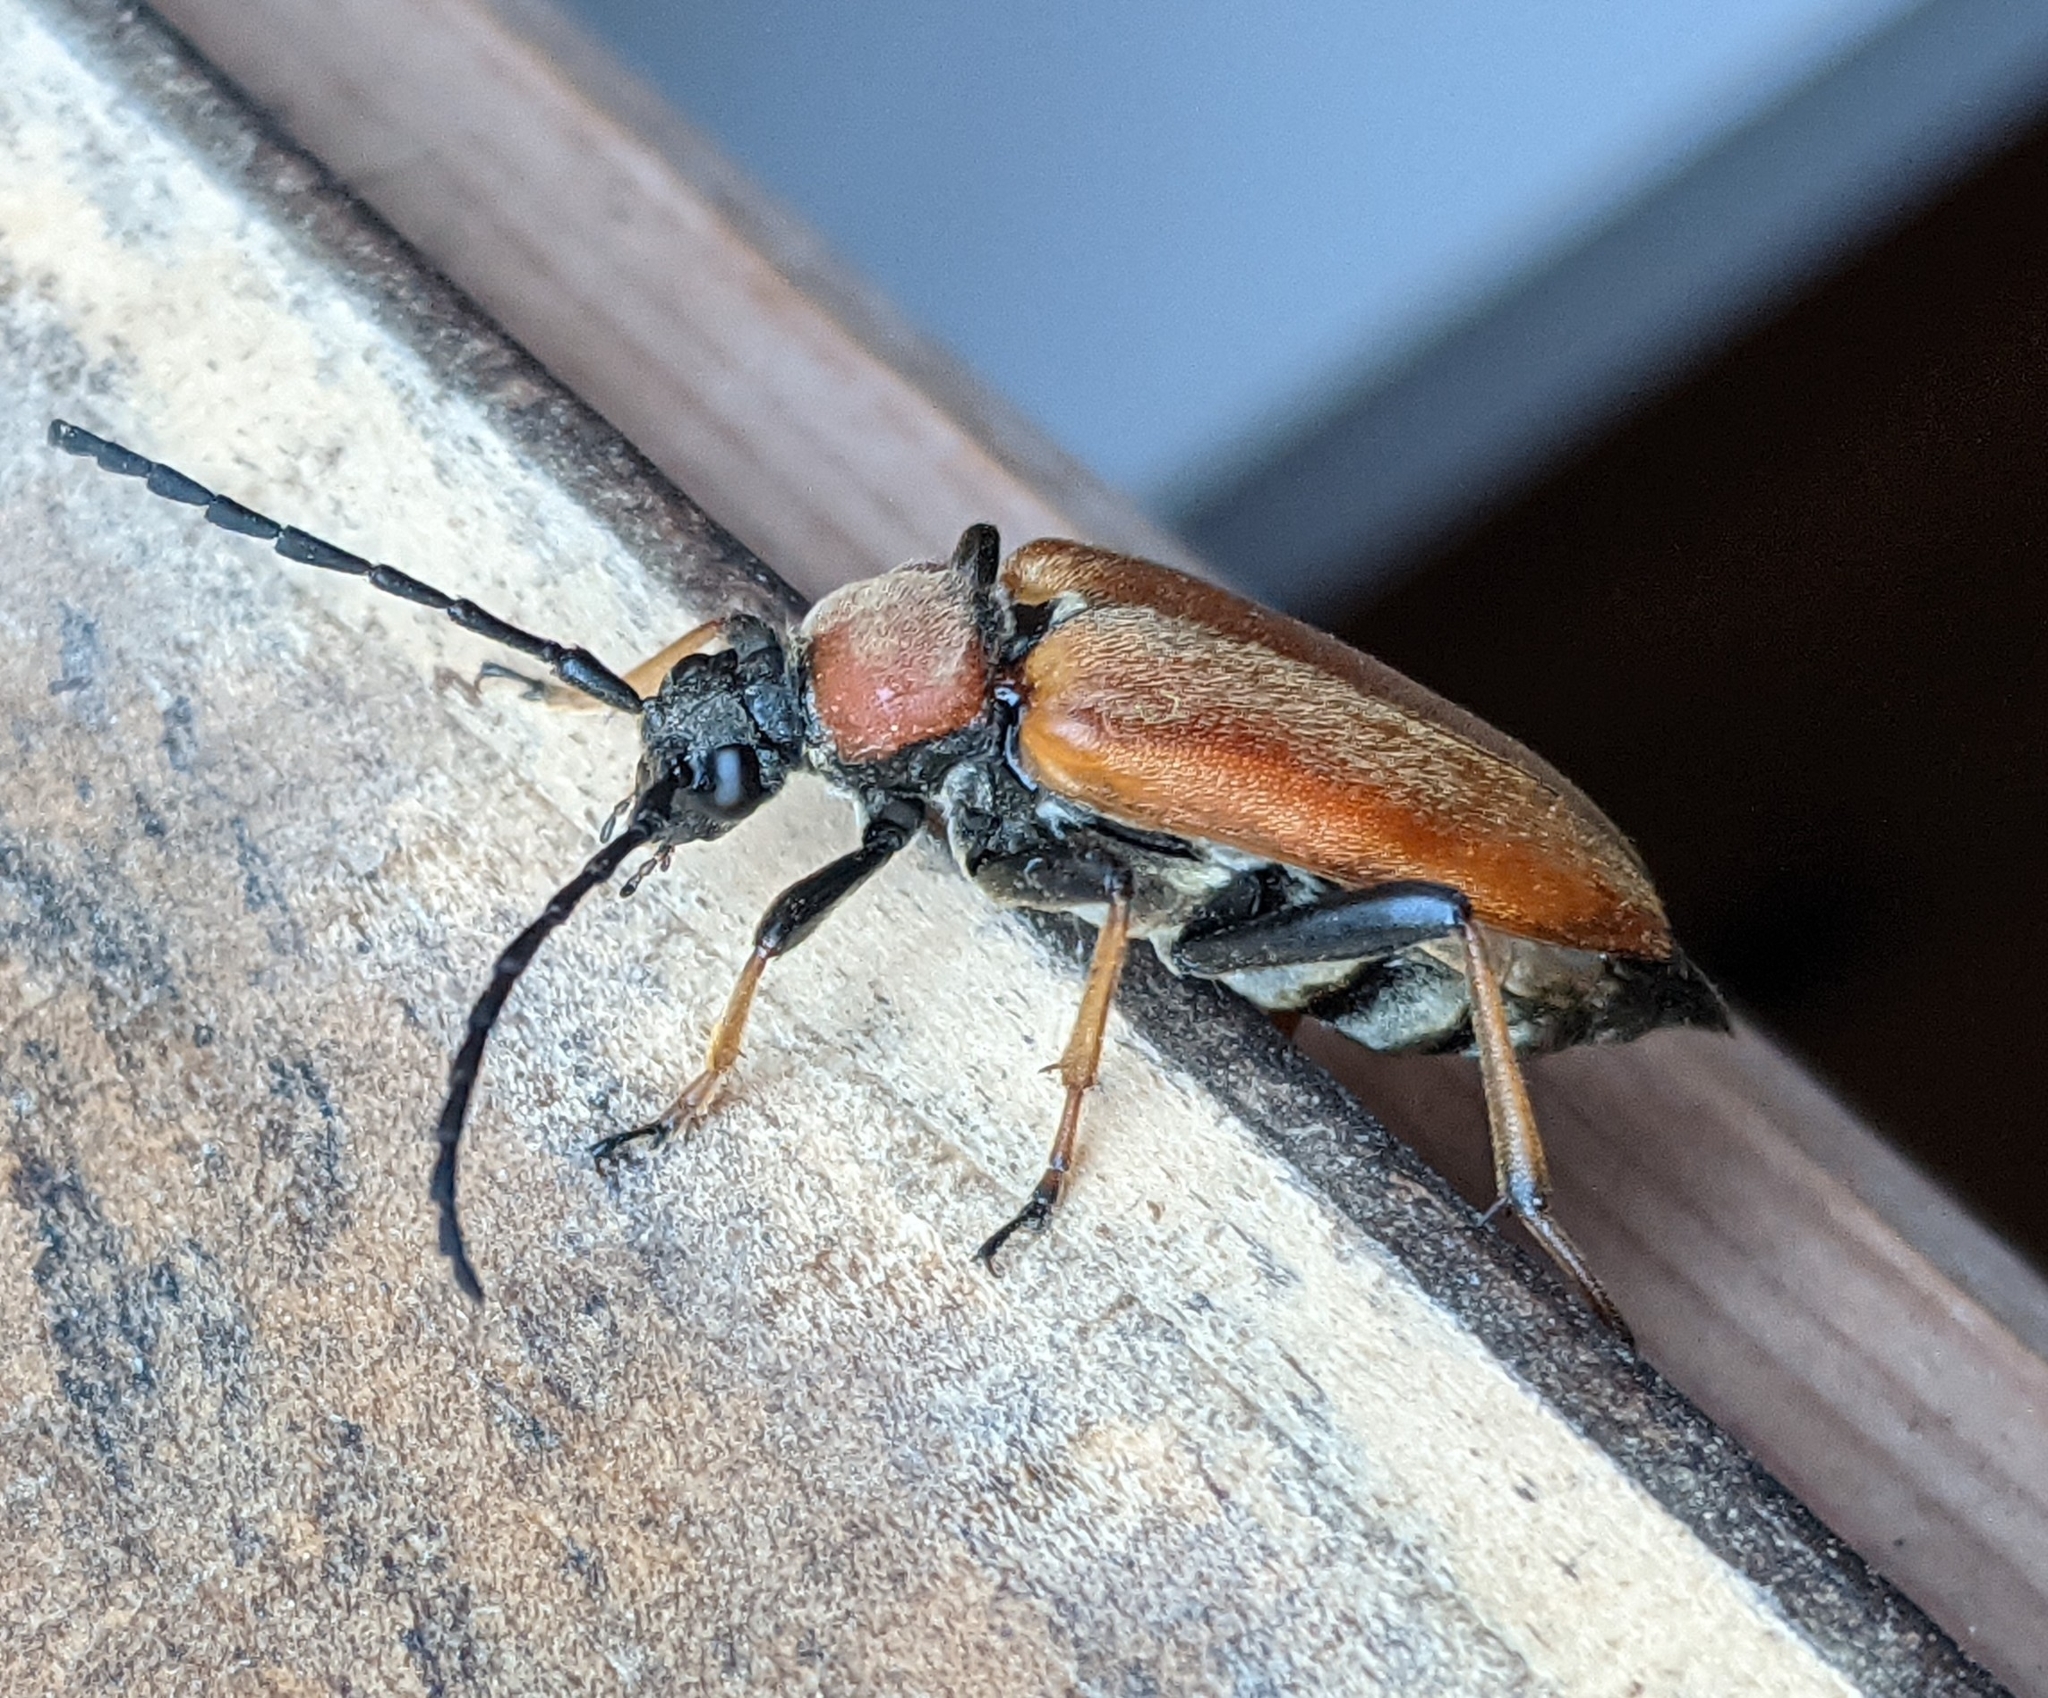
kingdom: Animalia
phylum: Arthropoda
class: Insecta
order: Coleoptera
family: Cerambycidae
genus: Stictoleptura
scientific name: Stictoleptura rubra
